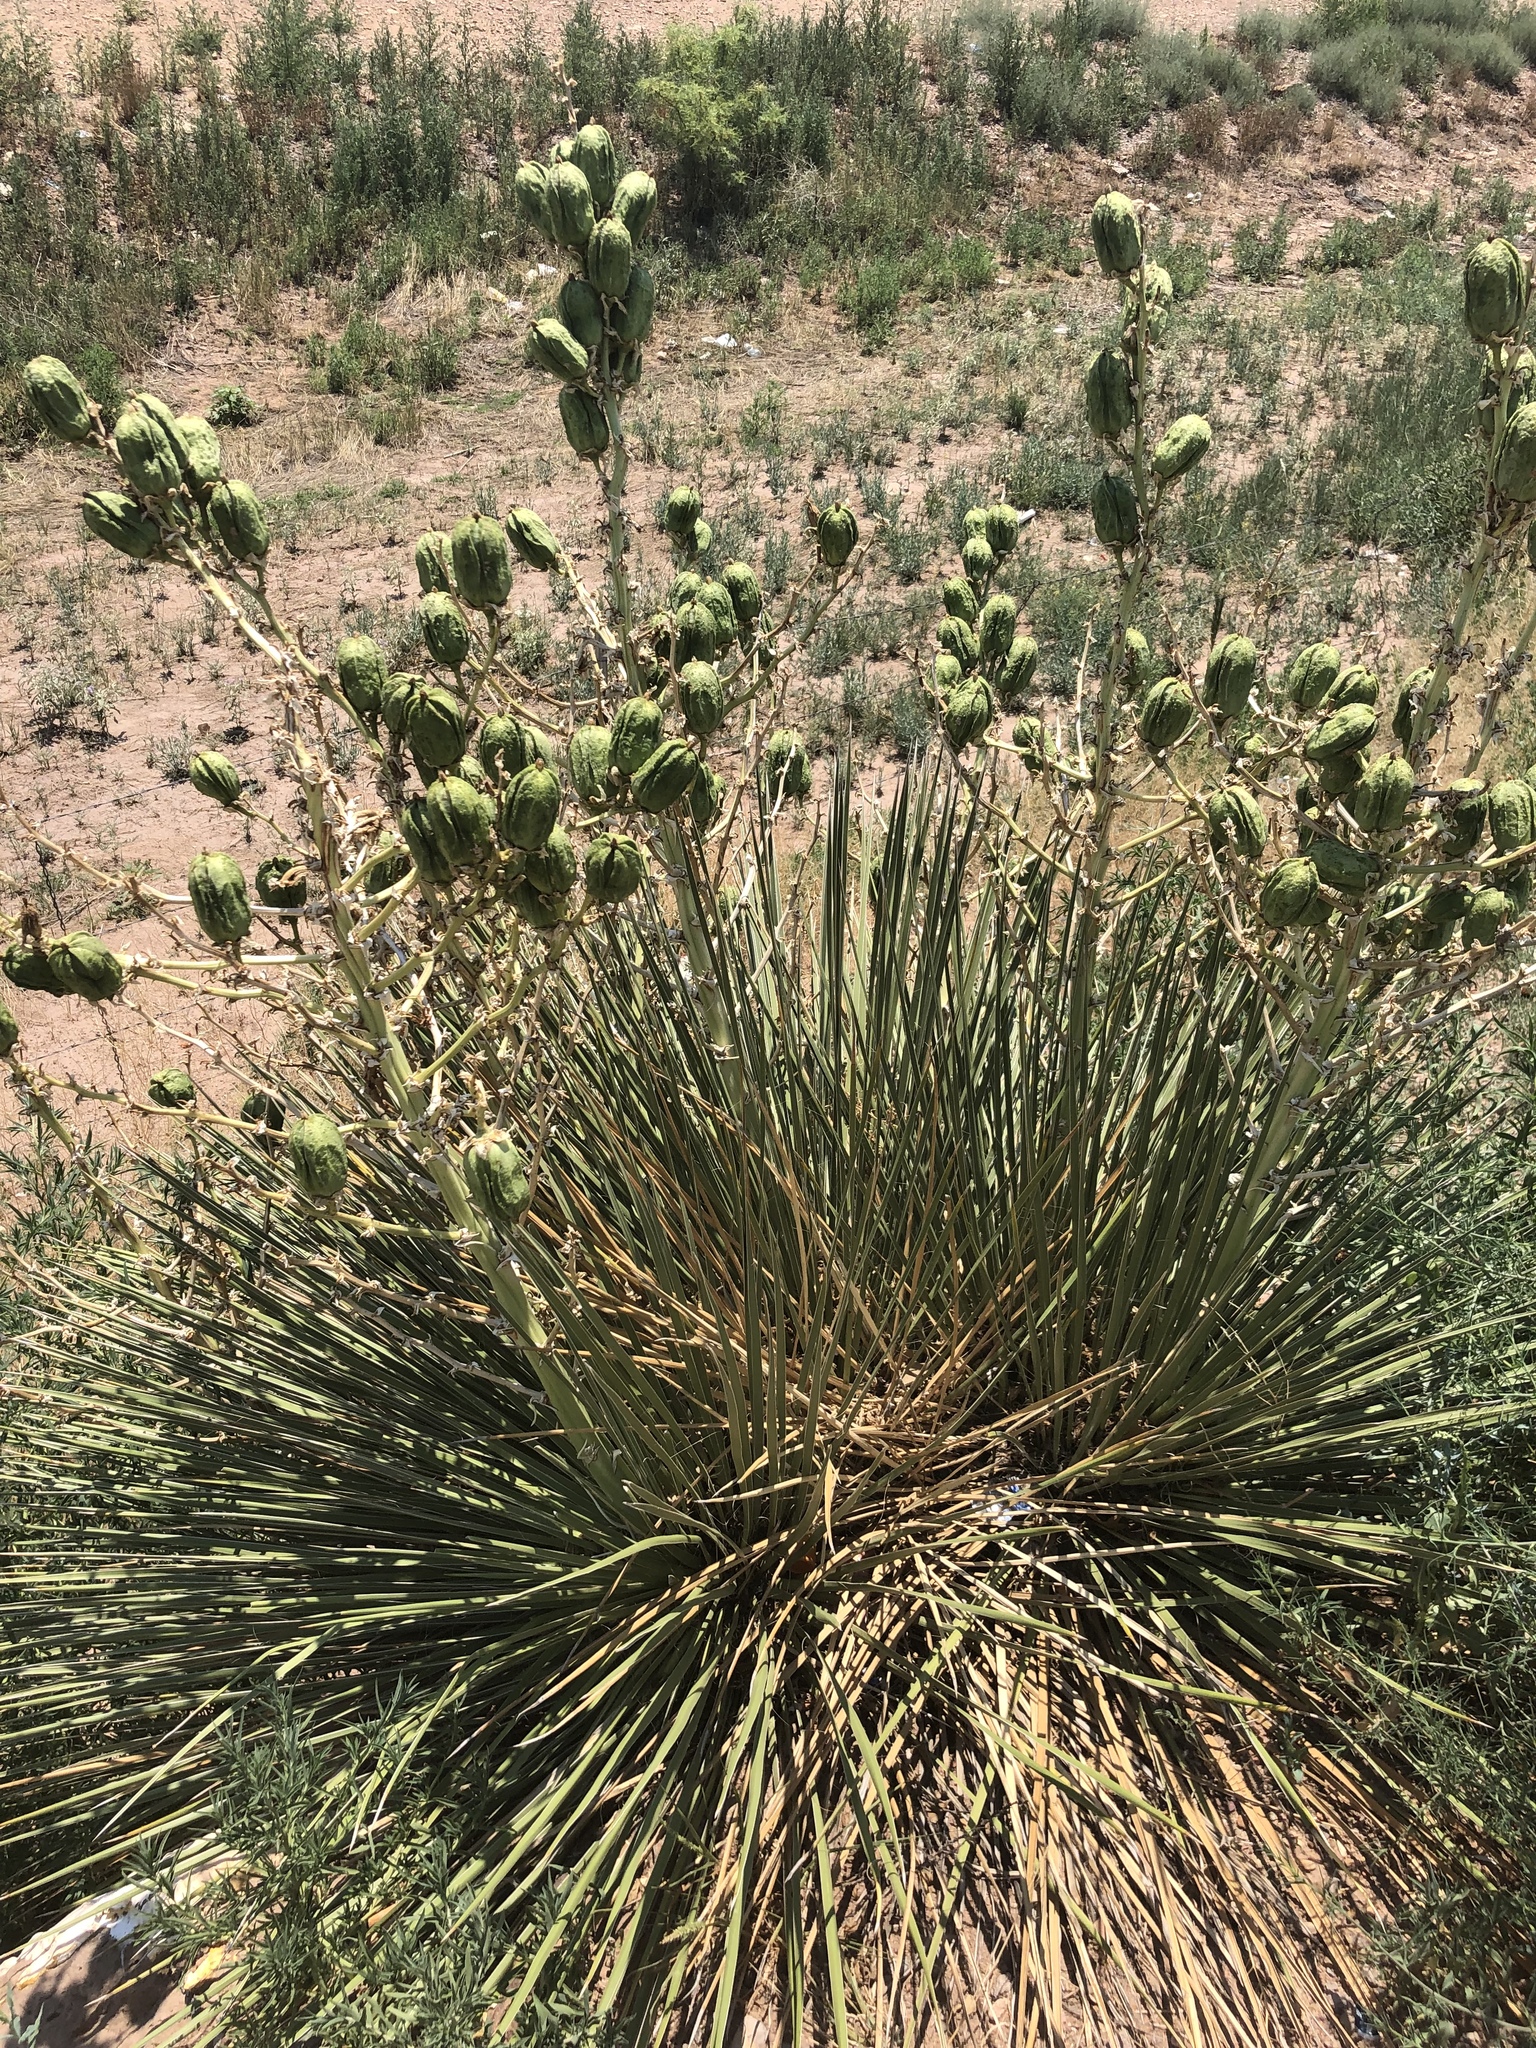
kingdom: Plantae
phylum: Tracheophyta
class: Liliopsida
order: Asparagales
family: Asparagaceae
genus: Yucca
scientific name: Yucca glauca
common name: Great plains yucca
